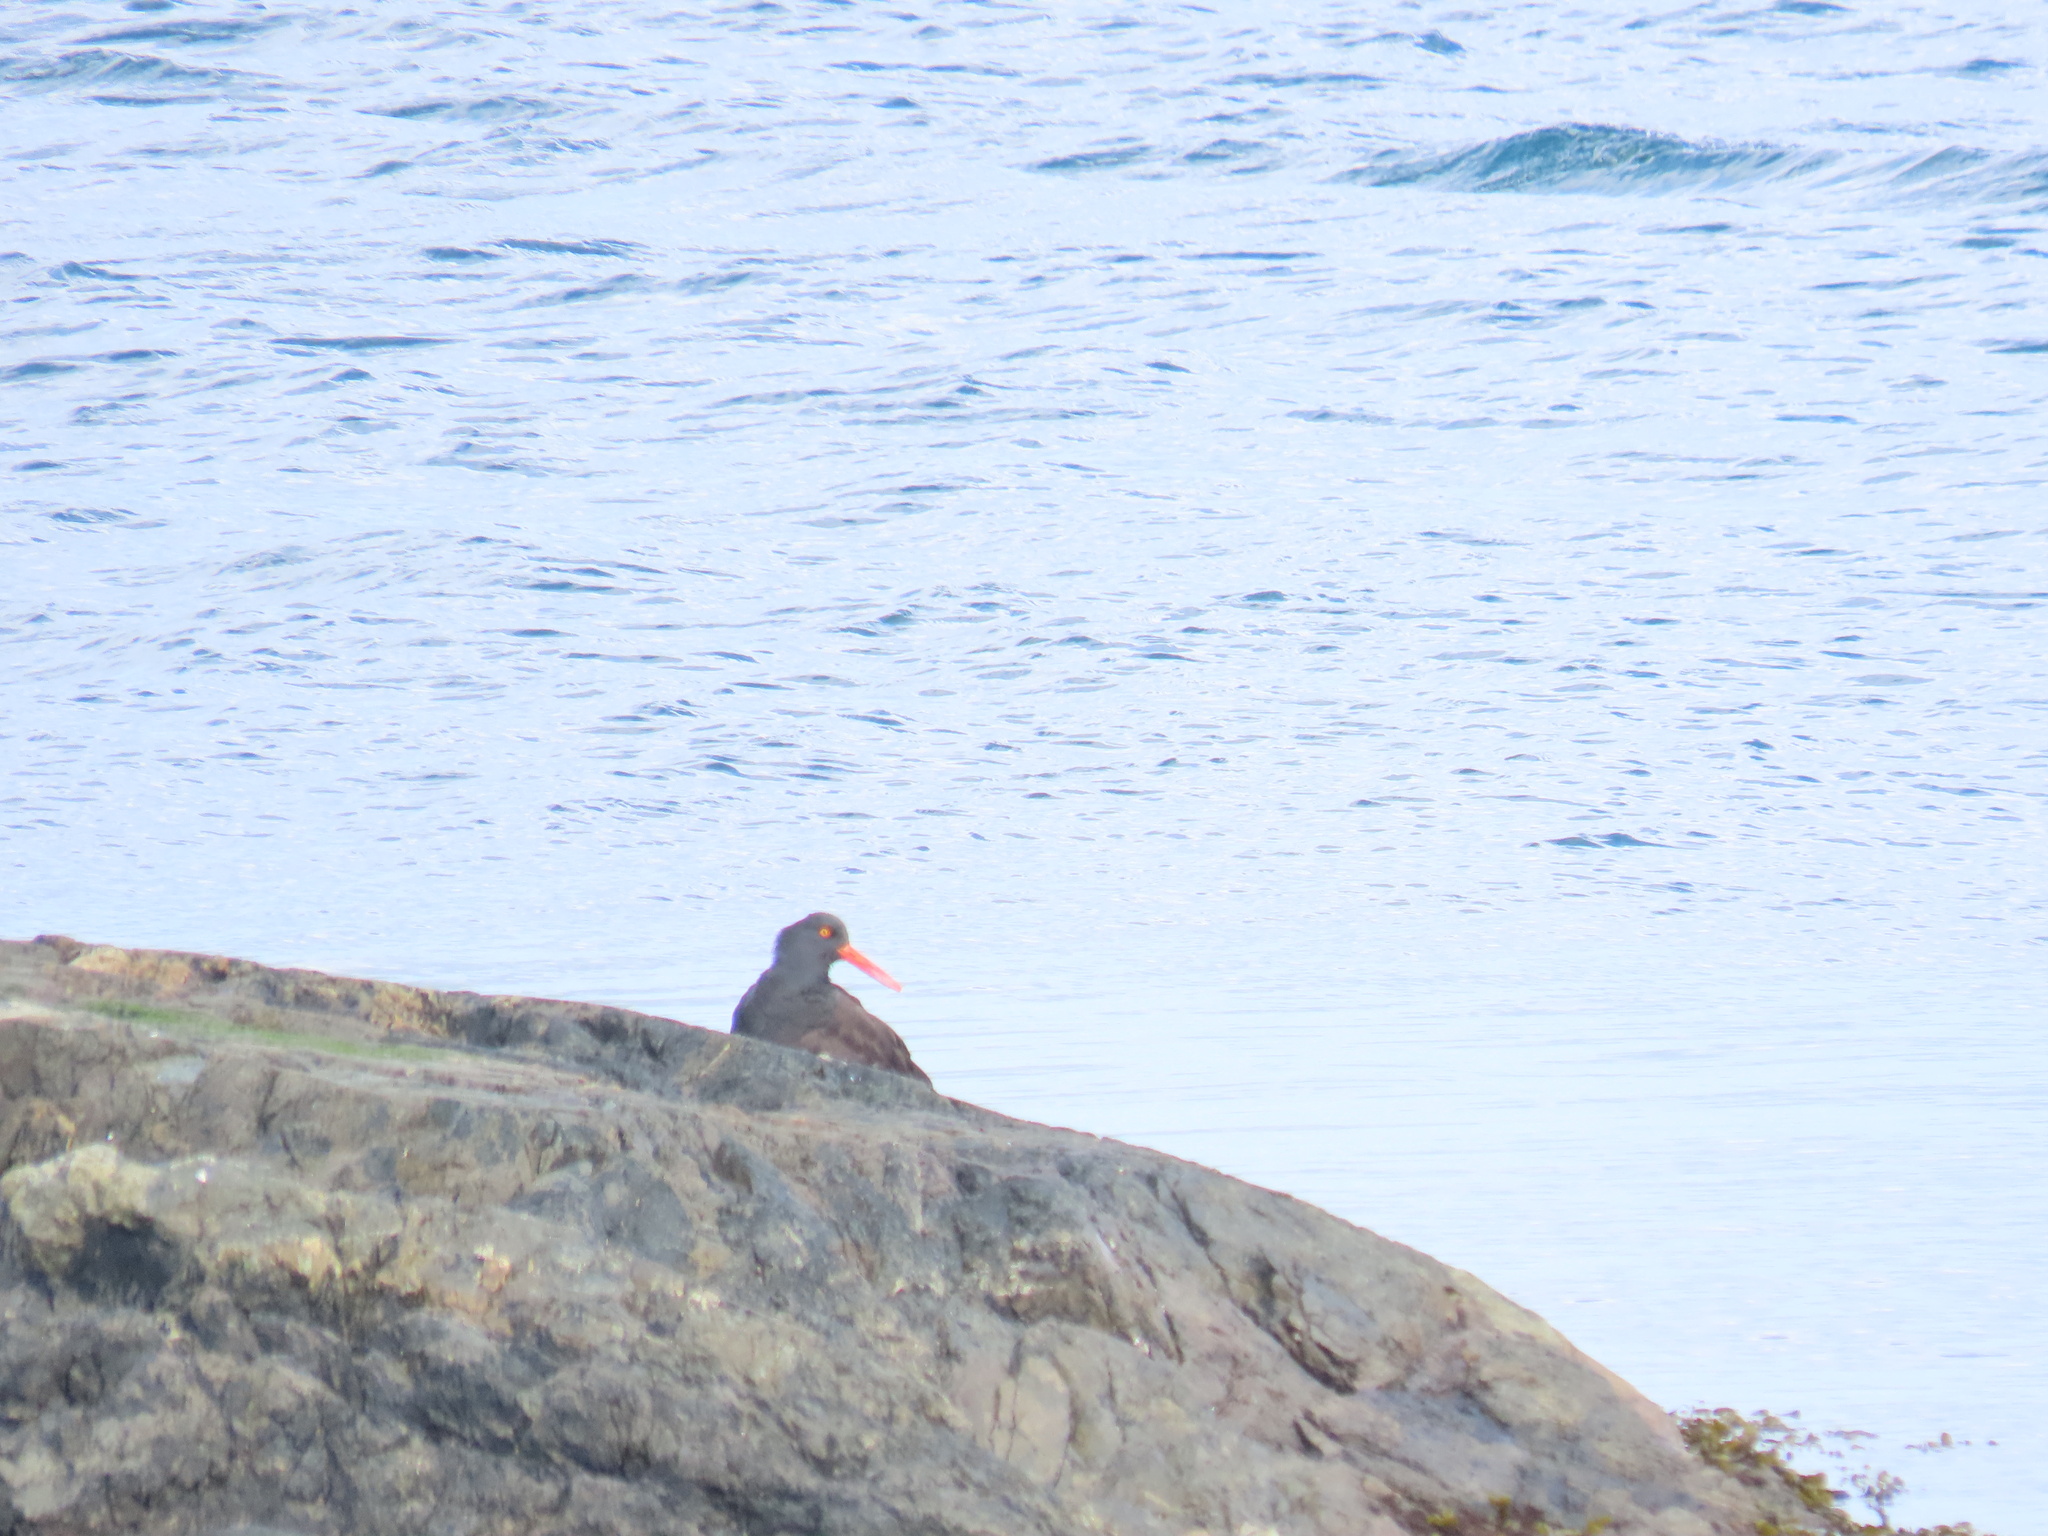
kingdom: Animalia
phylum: Chordata
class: Aves
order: Charadriiformes
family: Haematopodidae
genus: Haematopus
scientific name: Haematopus bachmani
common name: Black oystercatcher
